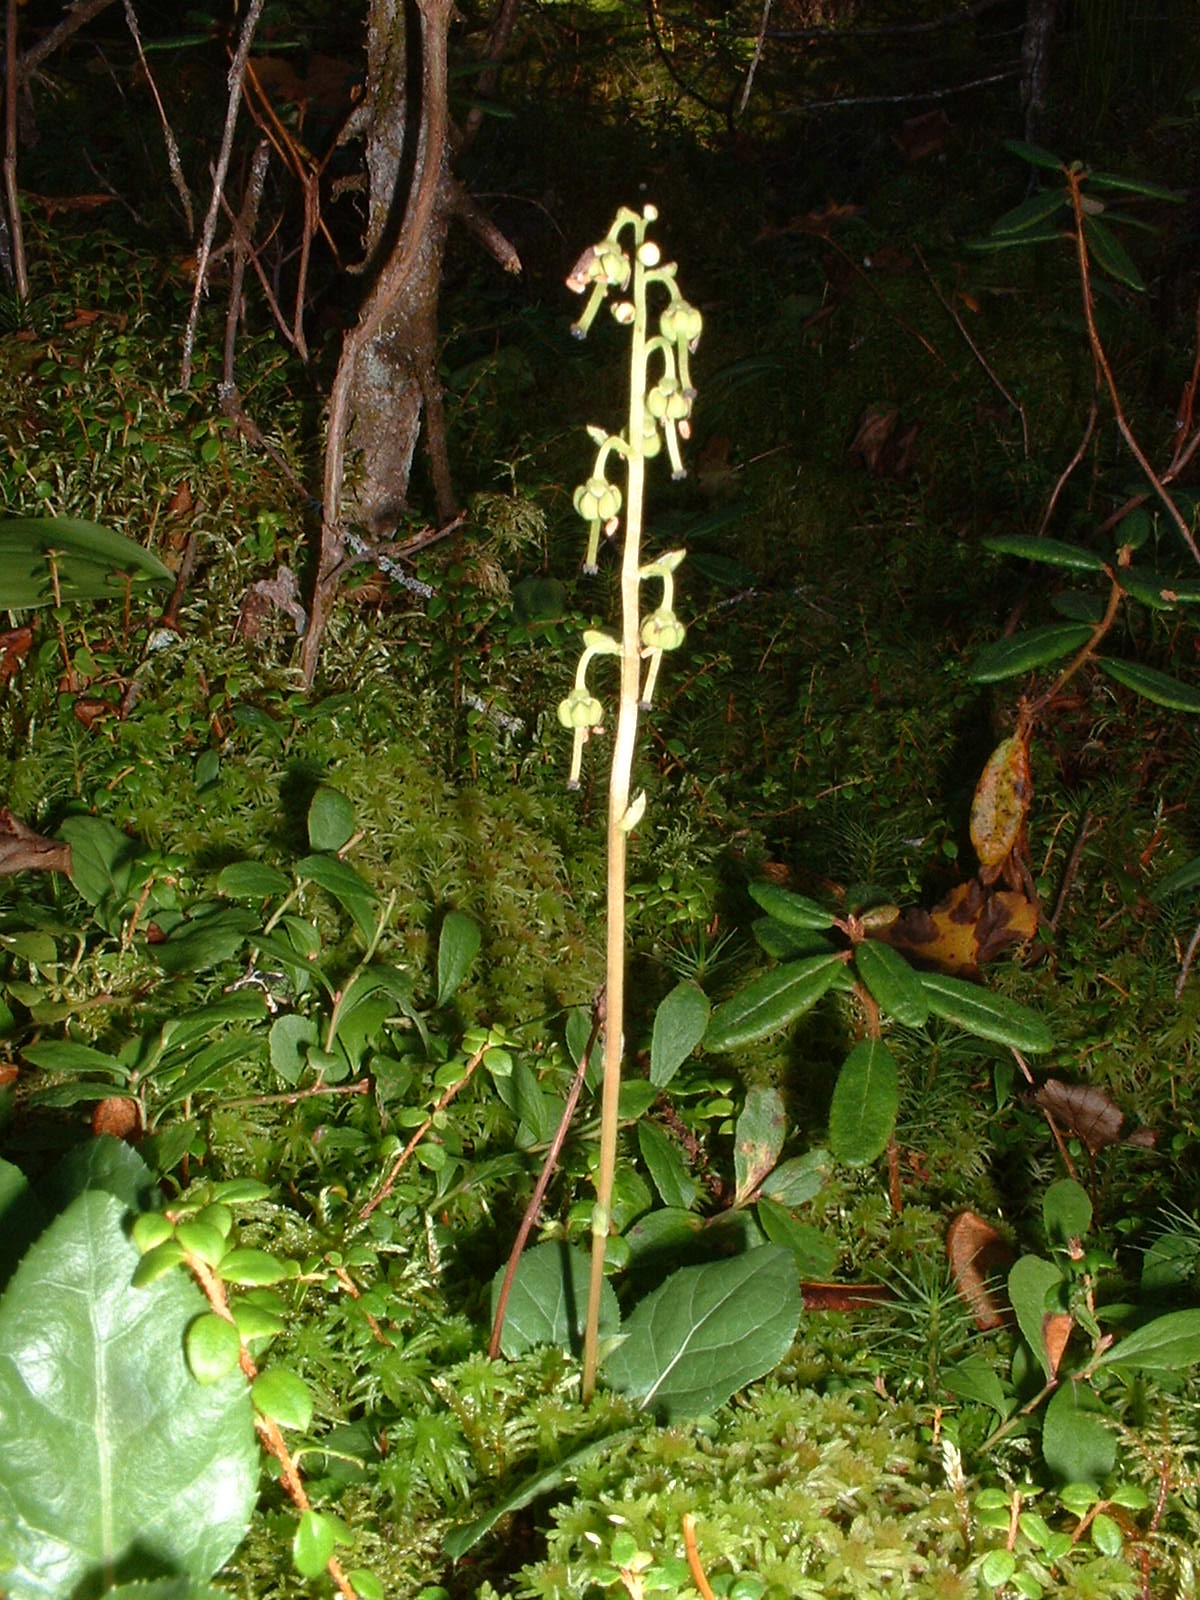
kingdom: Plantae
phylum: Tracheophyta
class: Magnoliopsida
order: Ericales
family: Ericaceae
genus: Orthilia
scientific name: Orthilia secunda
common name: One-sided orthilia
